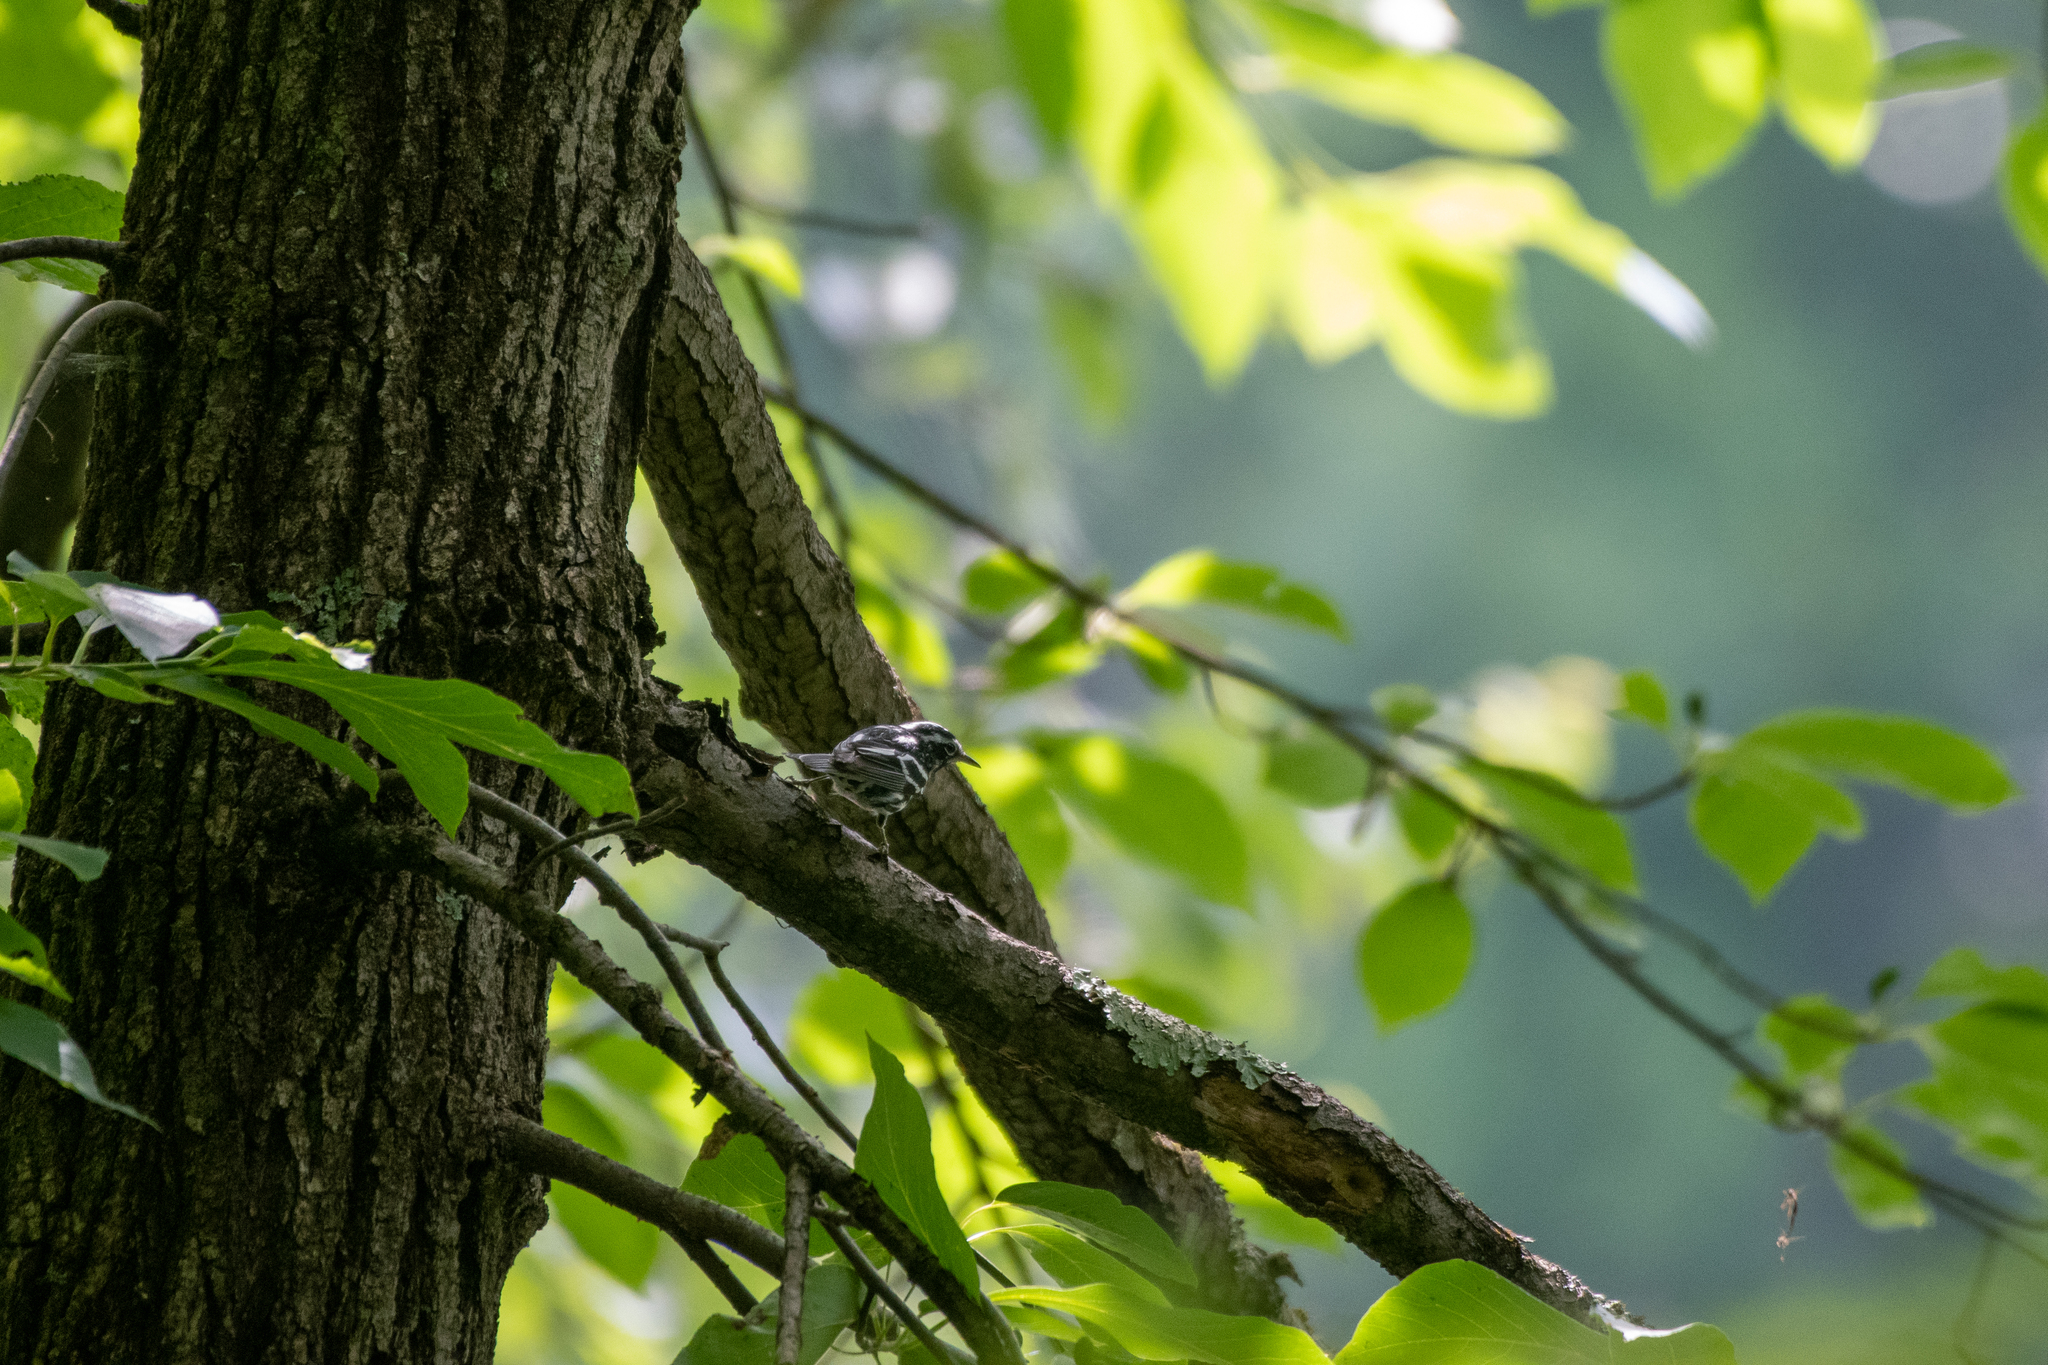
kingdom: Animalia
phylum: Chordata
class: Aves
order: Passeriformes
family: Parulidae
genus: Mniotilta
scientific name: Mniotilta varia
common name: Black-and-white warbler
